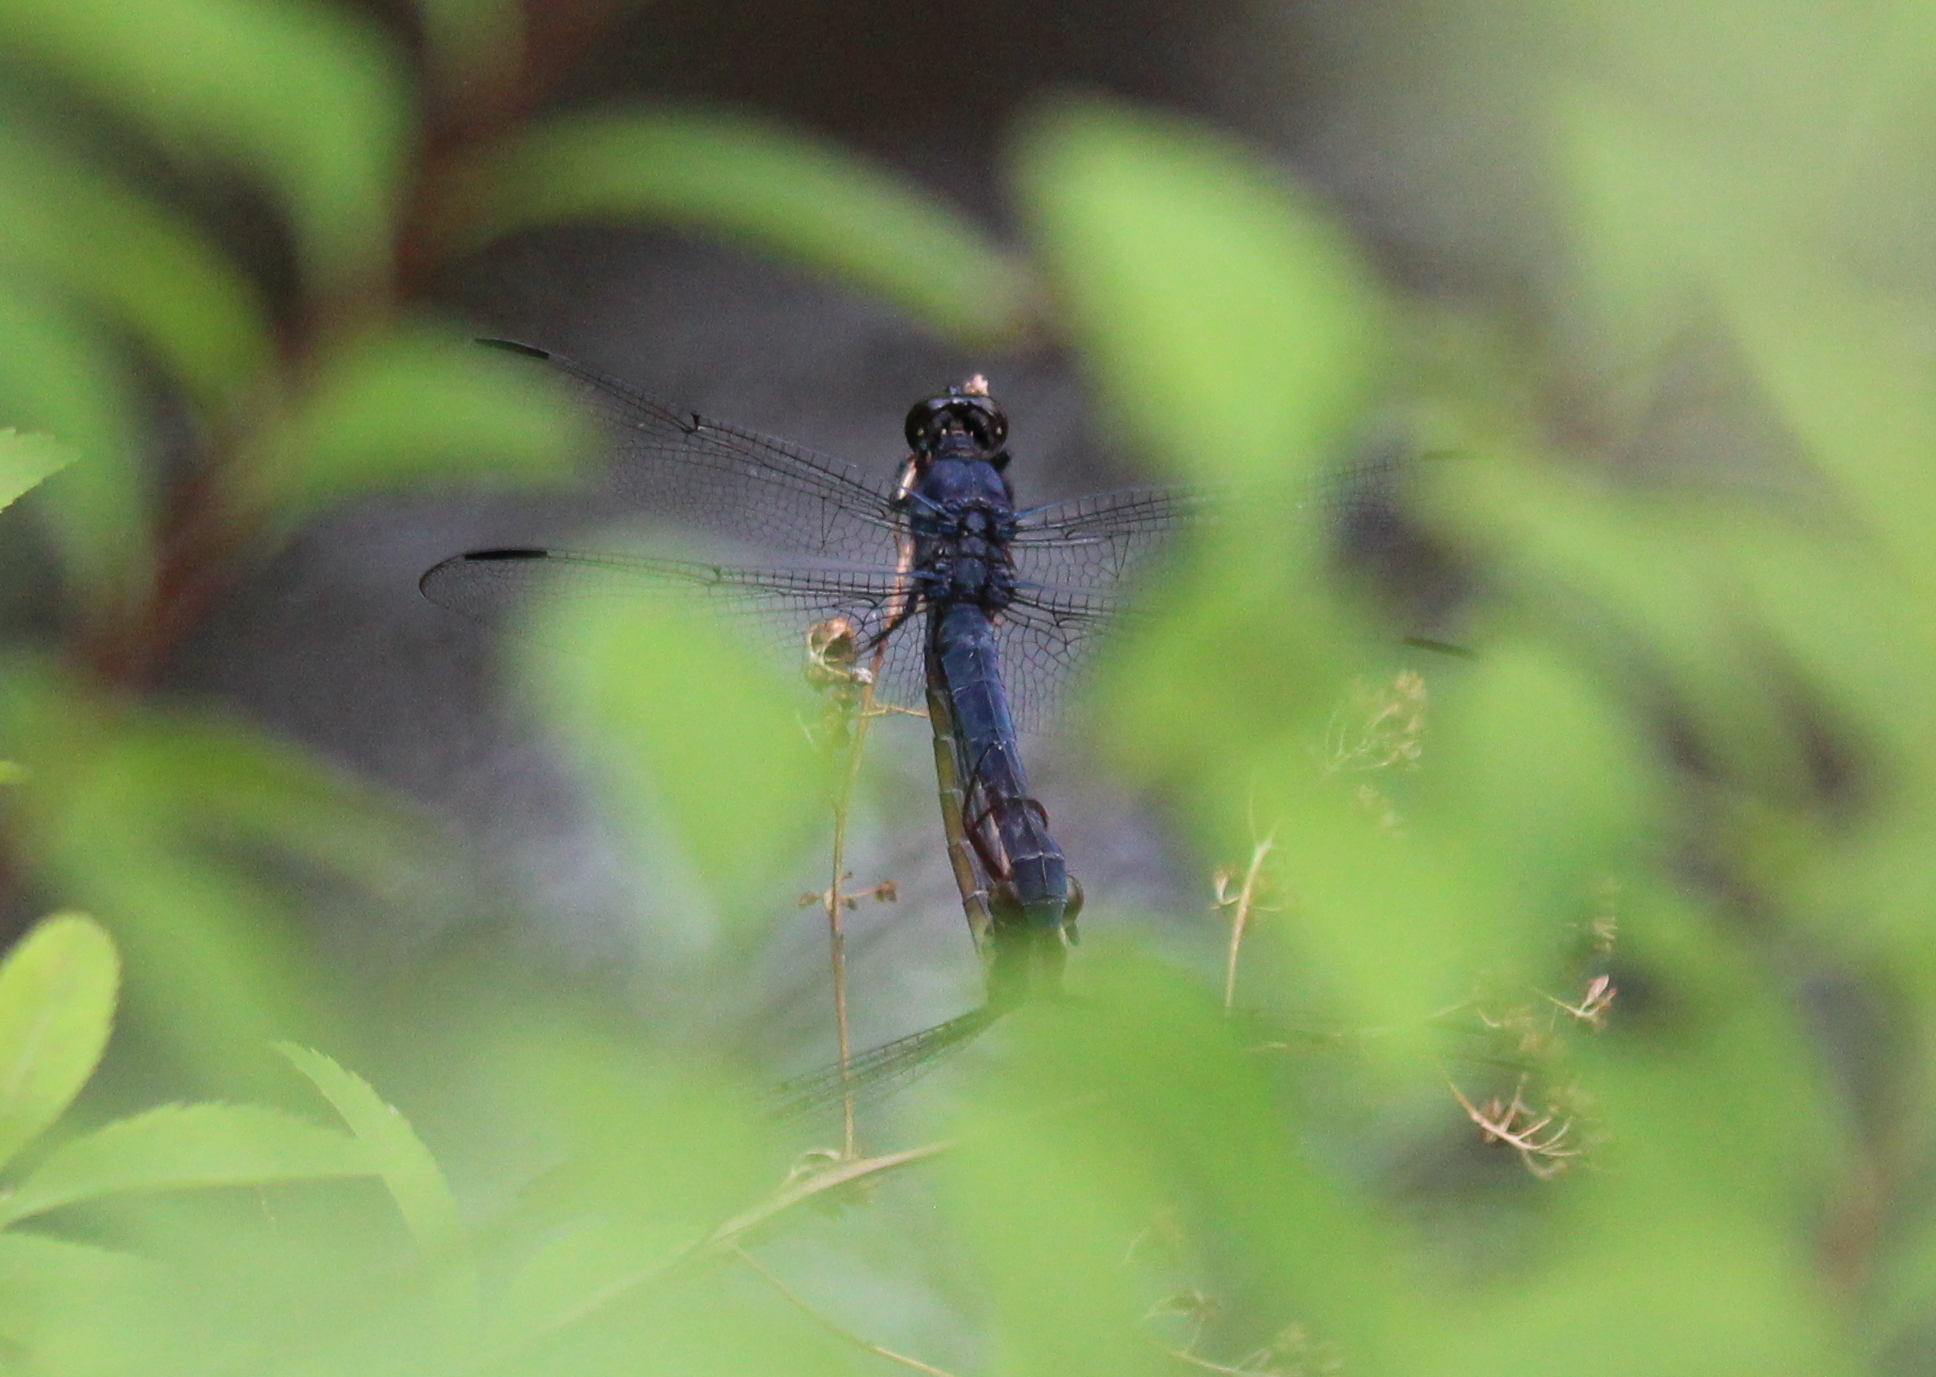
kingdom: Animalia
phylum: Arthropoda
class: Insecta
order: Odonata
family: Libellulidae
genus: Libellula
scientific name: Libellula incesta
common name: Slaty skimmer
